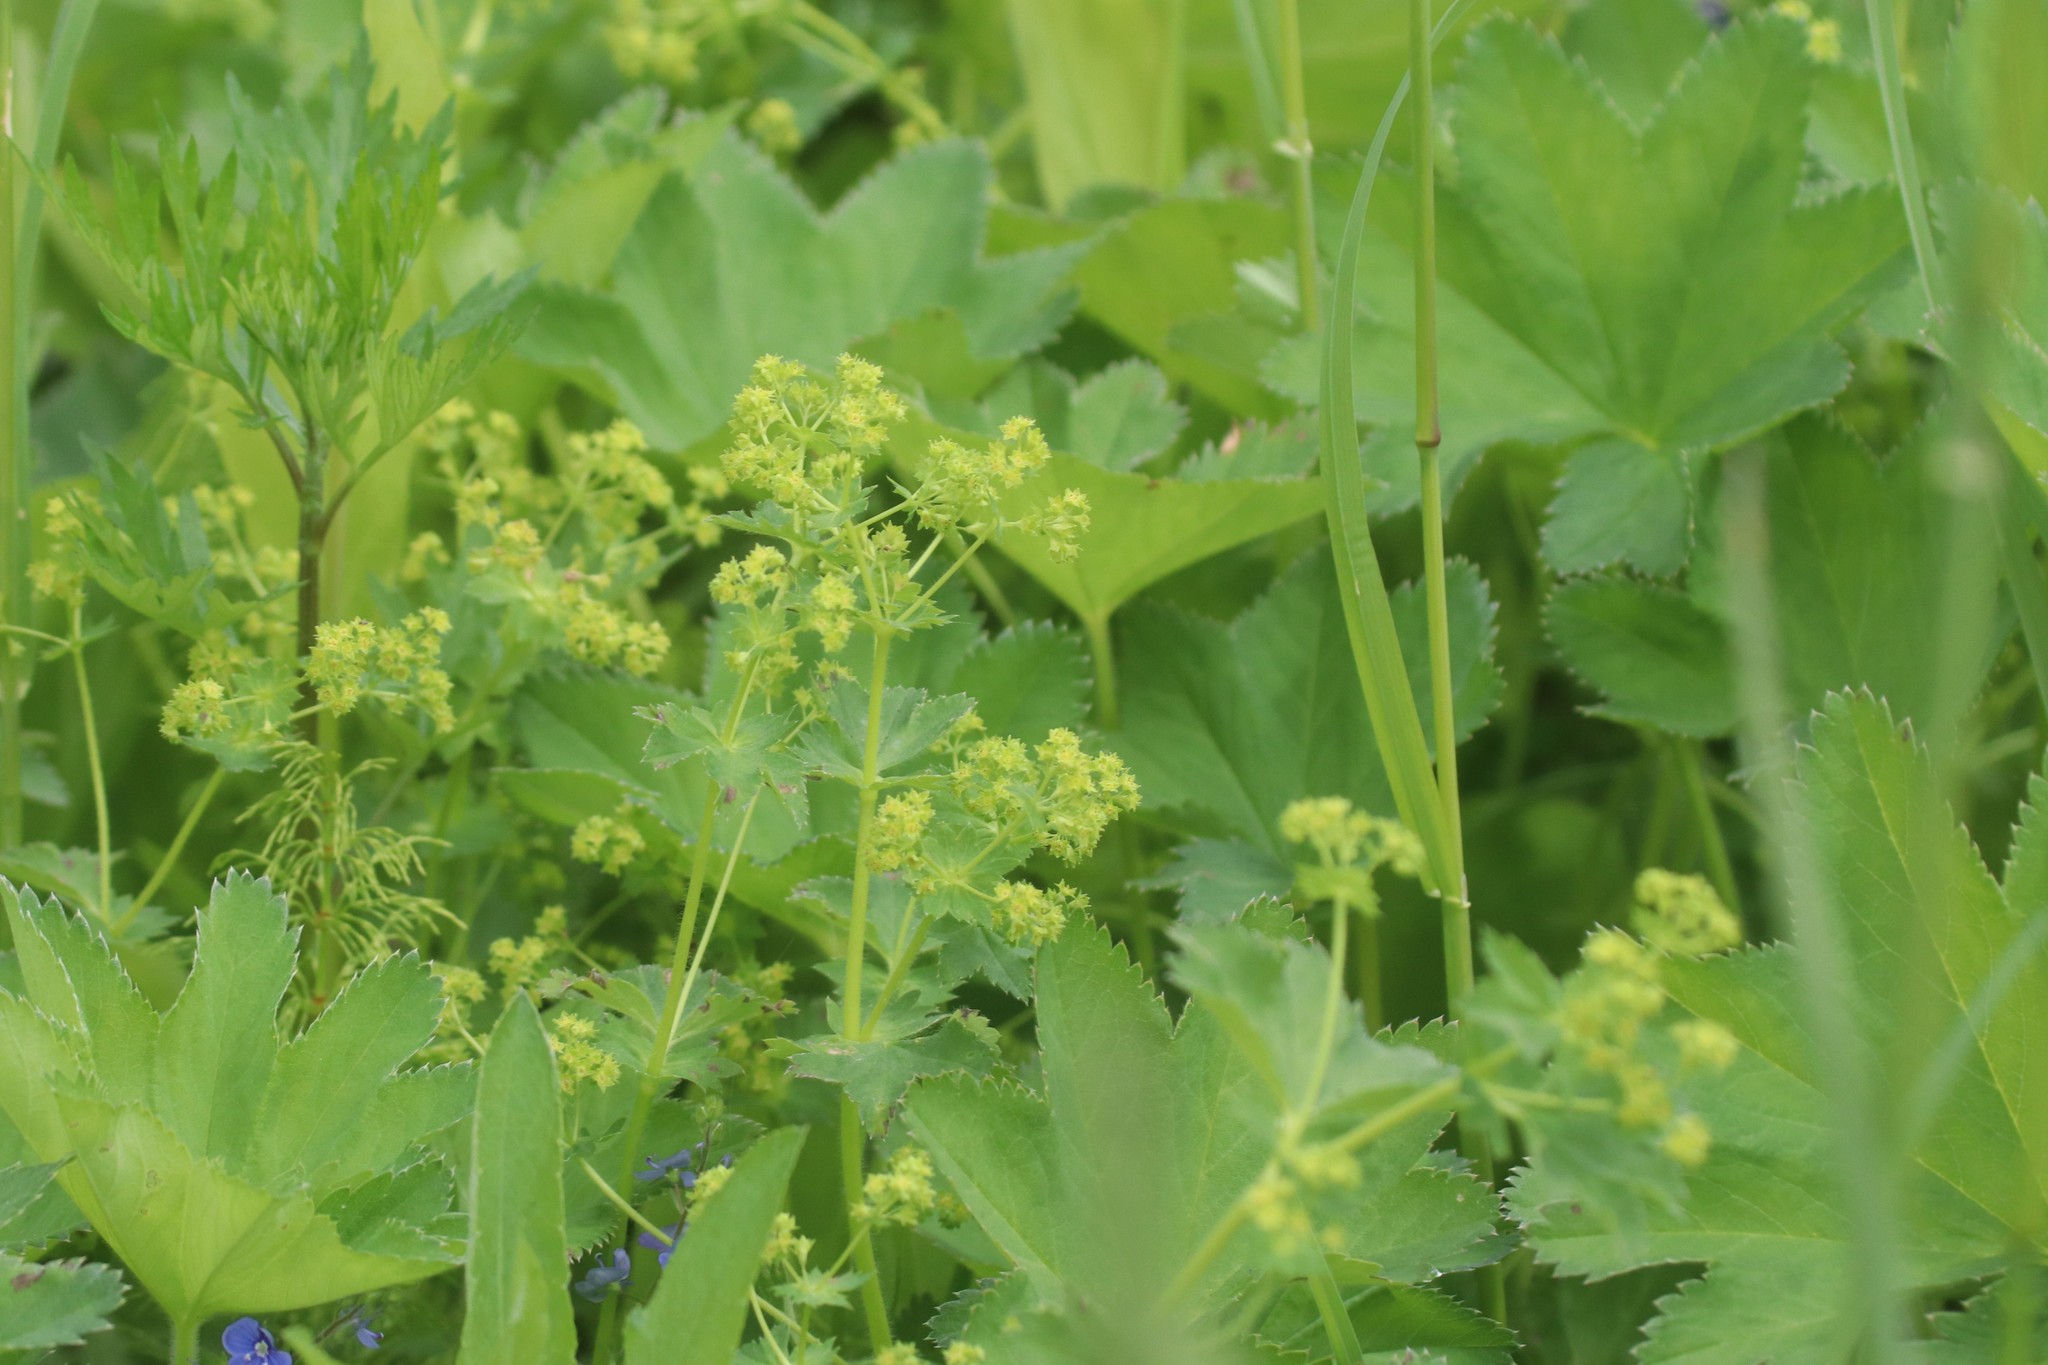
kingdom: Plantae
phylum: Tracheophyta
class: Magnoliopsida
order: Rosales
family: Rosaceae
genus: Alchemilla
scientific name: Alchemilla
